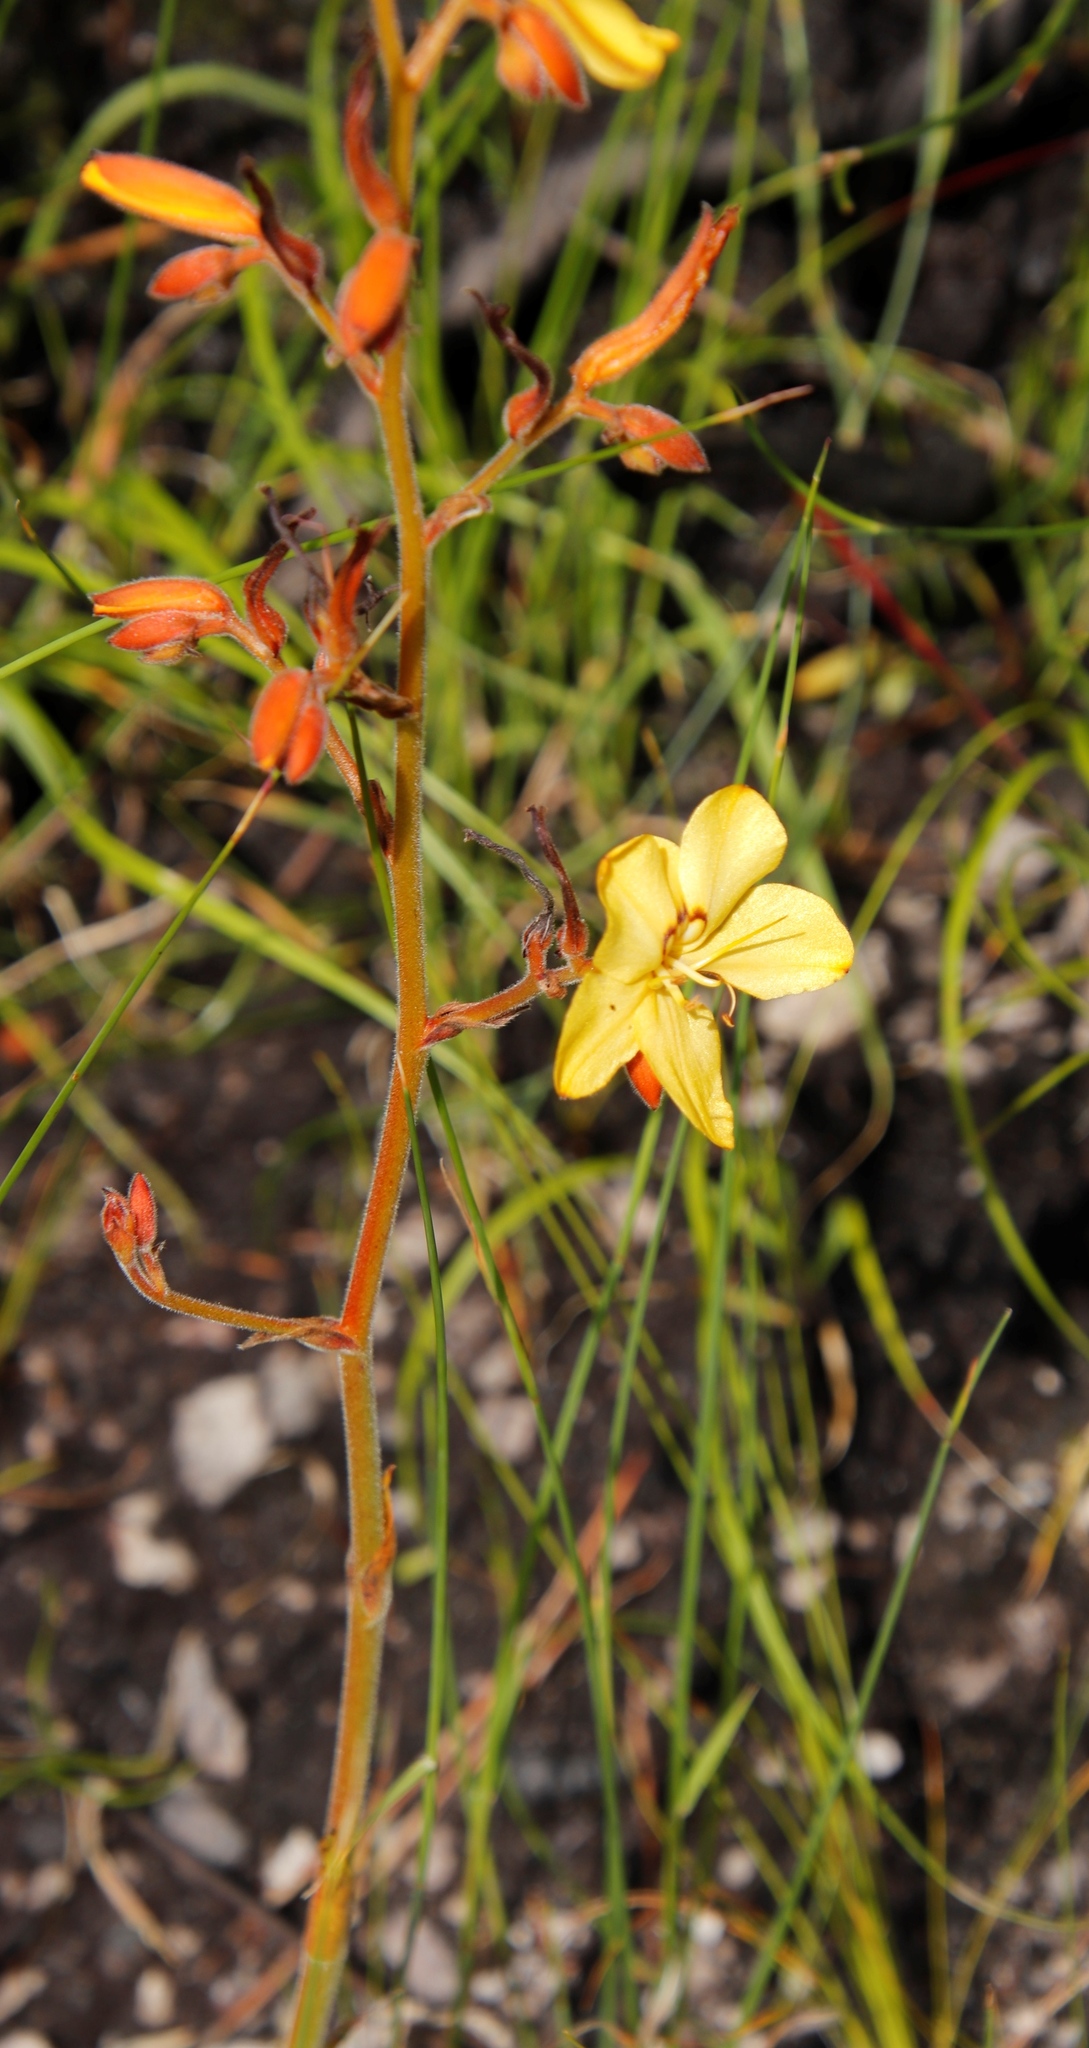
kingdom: Plantae
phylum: Tracheophyta
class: Liliopsida
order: Commelinales
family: Haemodoraceae
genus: Wachendorfia
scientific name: Wachendorfia paniculata
